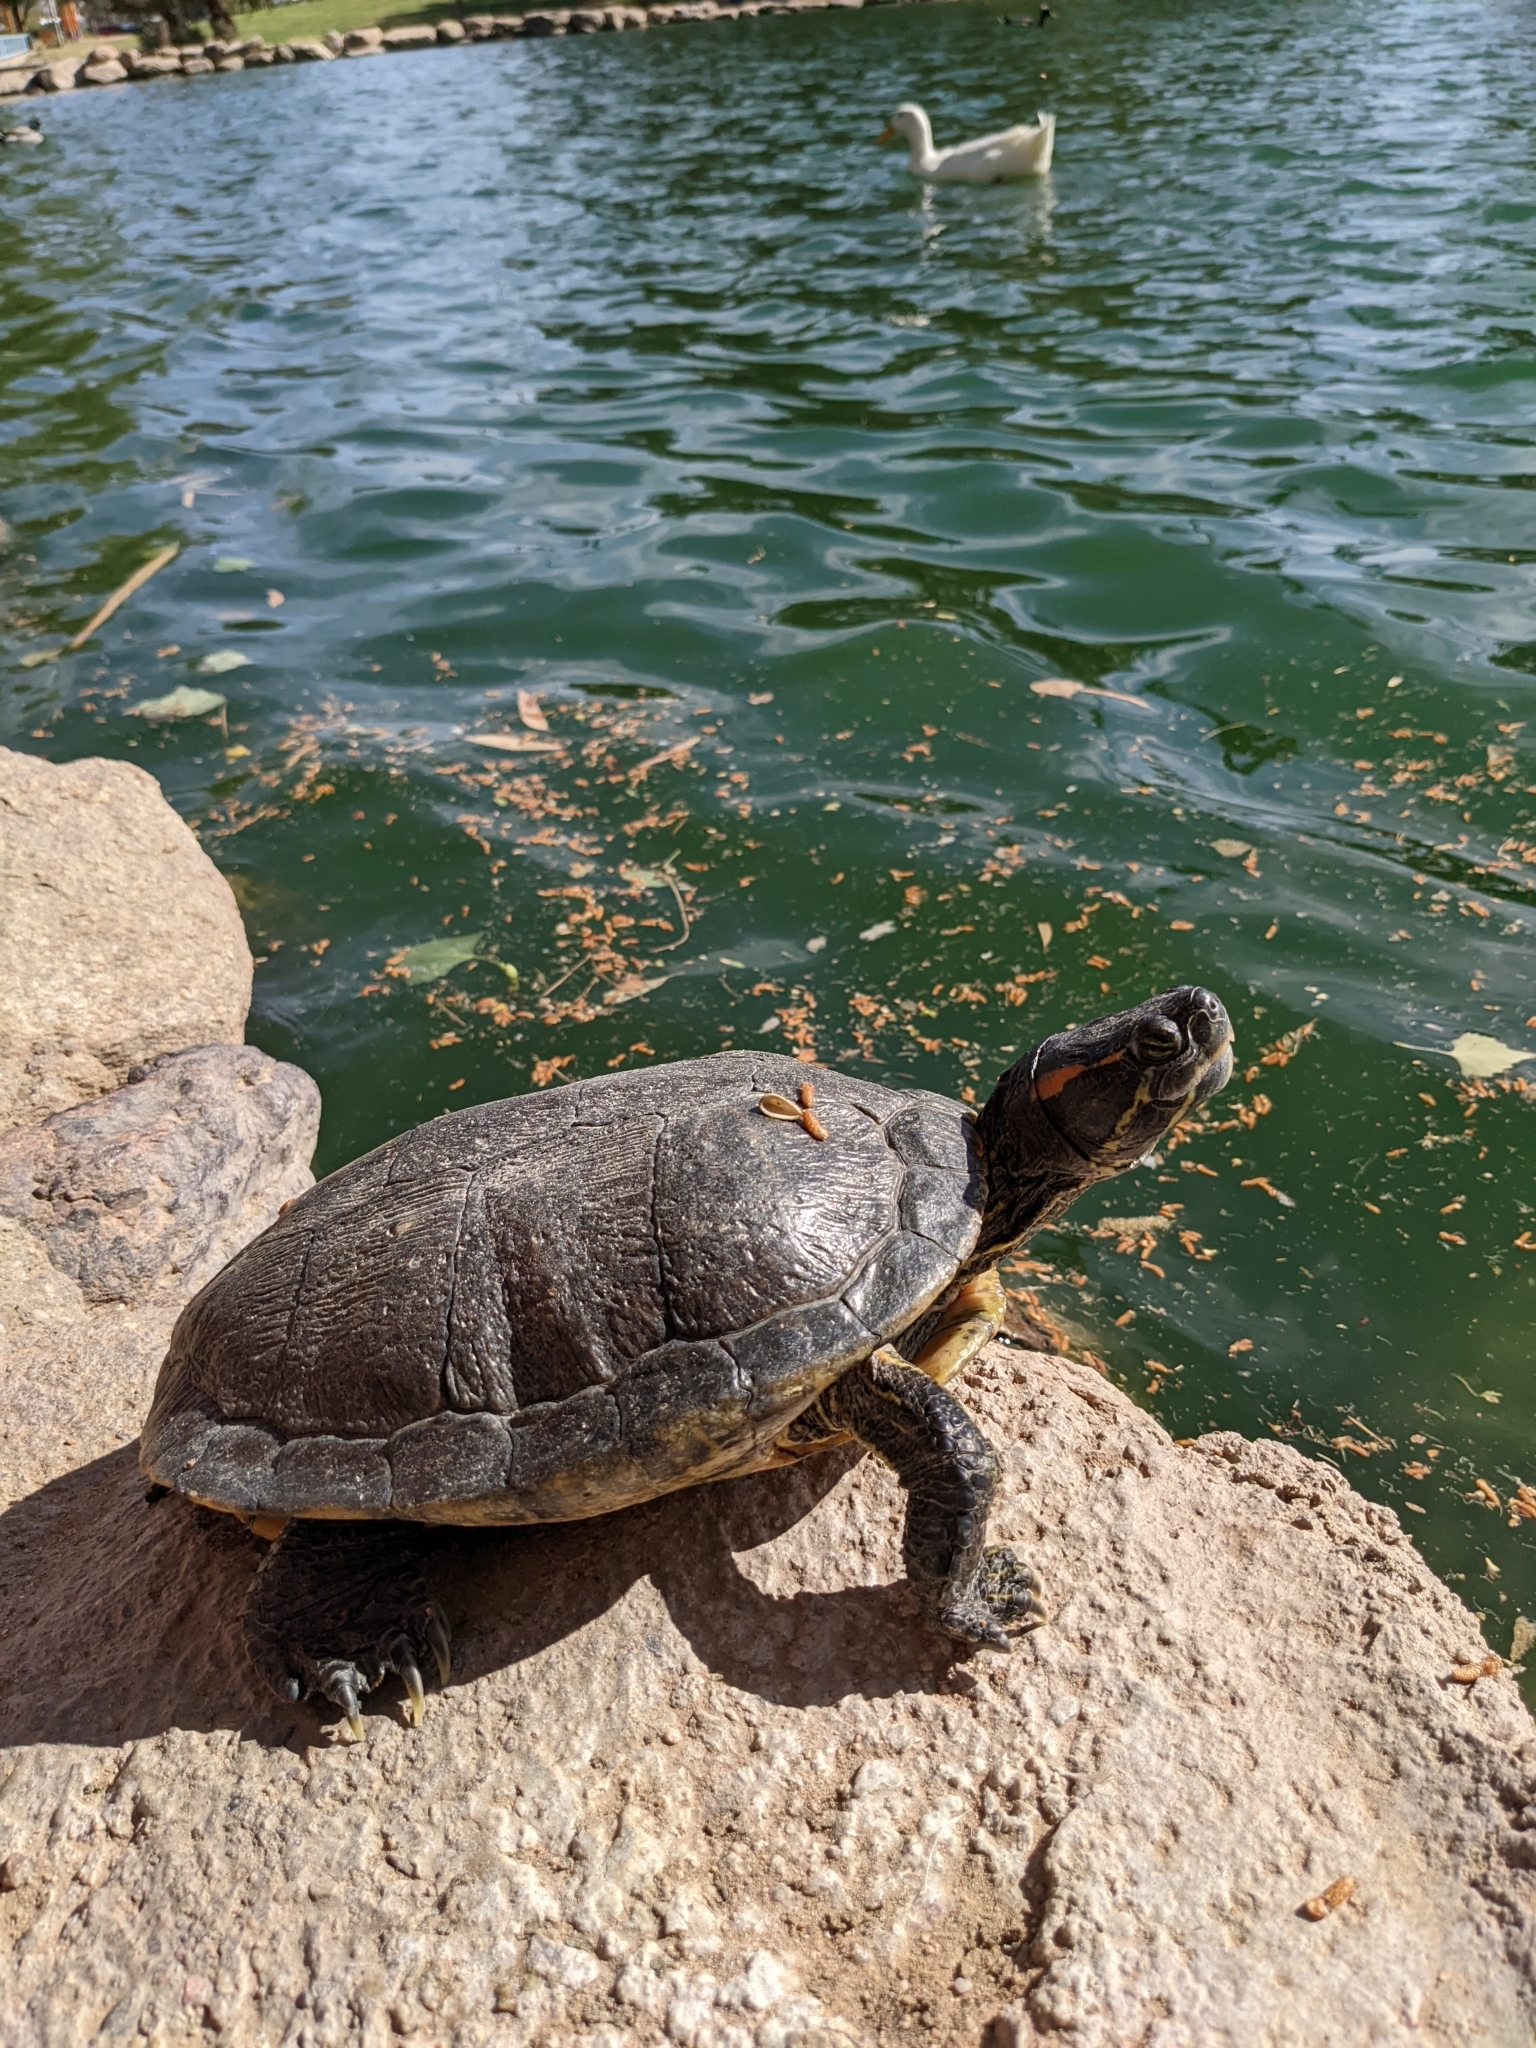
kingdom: Animalia
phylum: Chordata
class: Testudines
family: Emydidae
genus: Trachemys
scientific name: Trachemys scripta
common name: Slider
